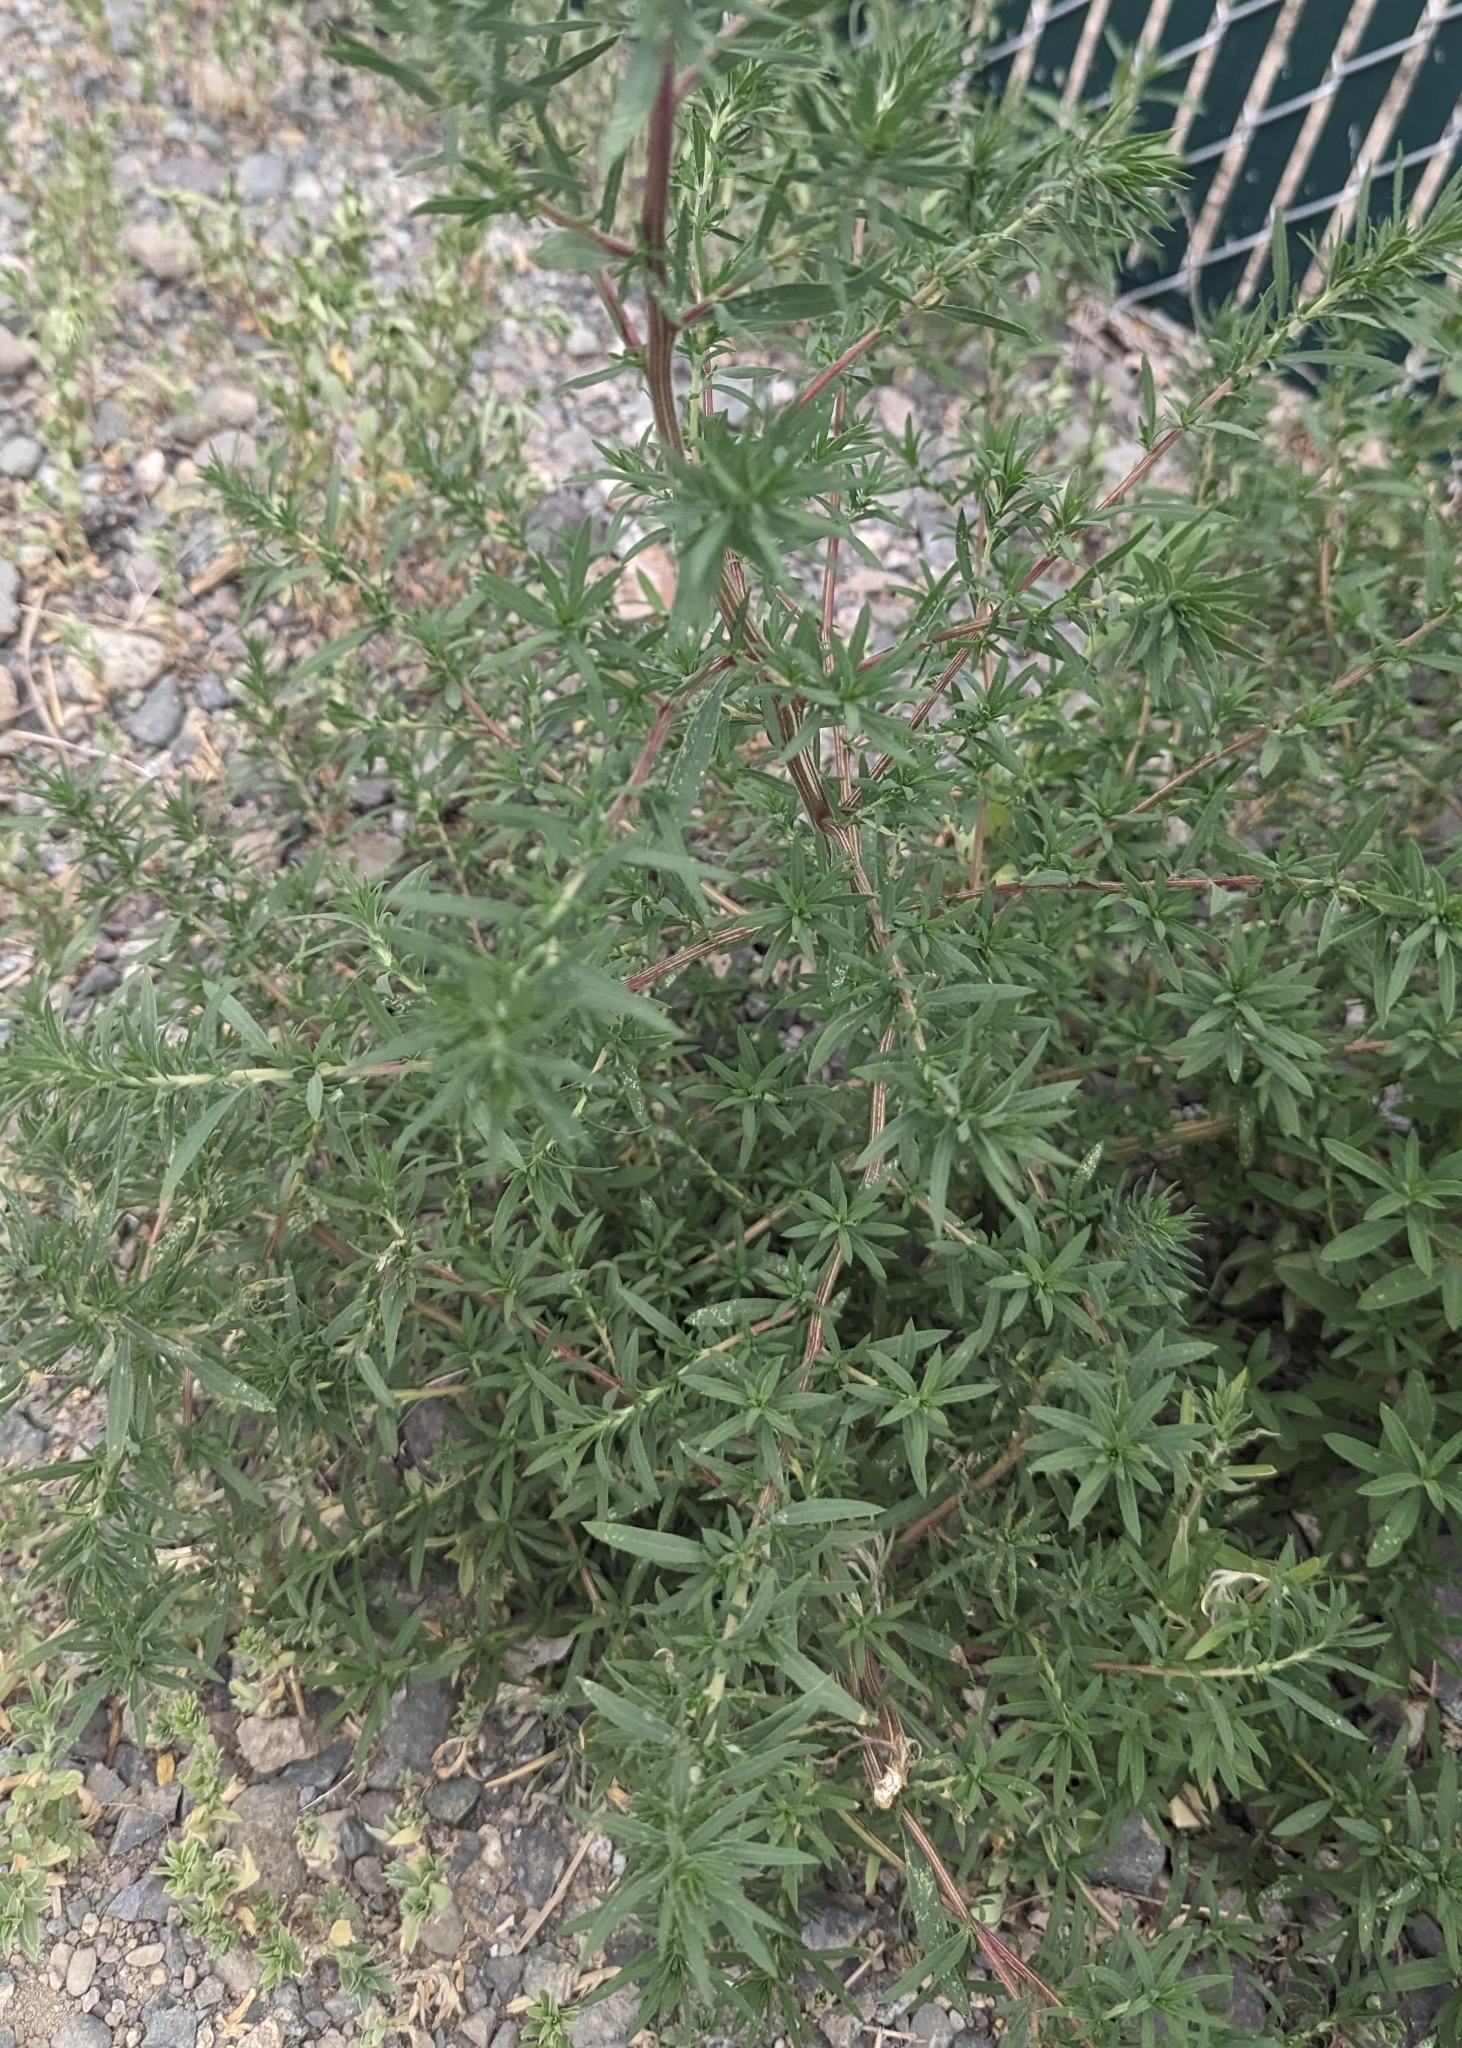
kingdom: Plantae
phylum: Tracheophyta
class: Magnoliopsida
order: Caryophyllales
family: Amaranthaceae
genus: Bassia
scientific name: Bassia scoparia
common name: Belvedere
